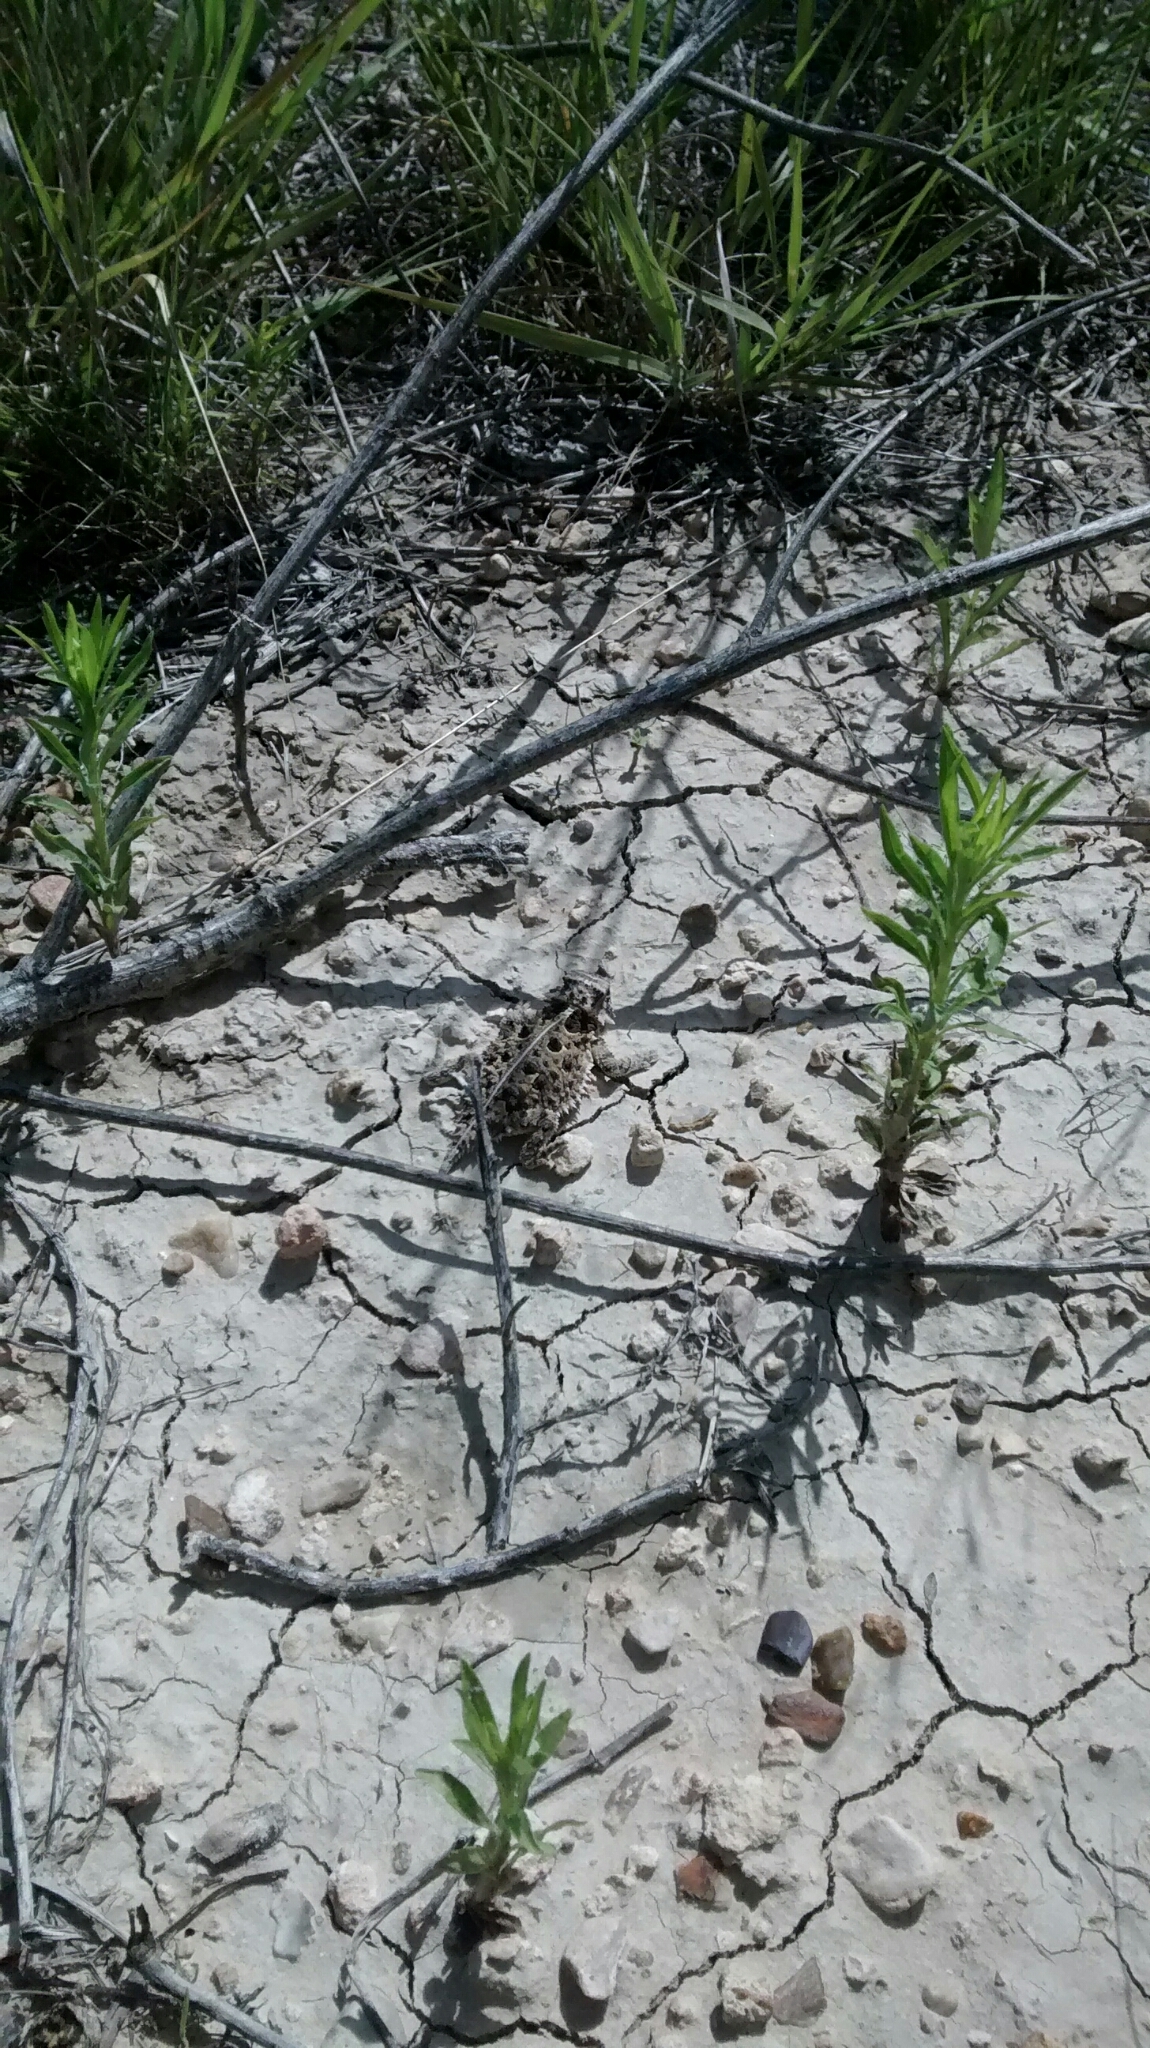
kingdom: Animalia
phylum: Chordata
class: Squamata
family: Phrynosomatidae
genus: Phrynosoma
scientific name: Phrynosoma cornutum
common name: Texas horned lizard
